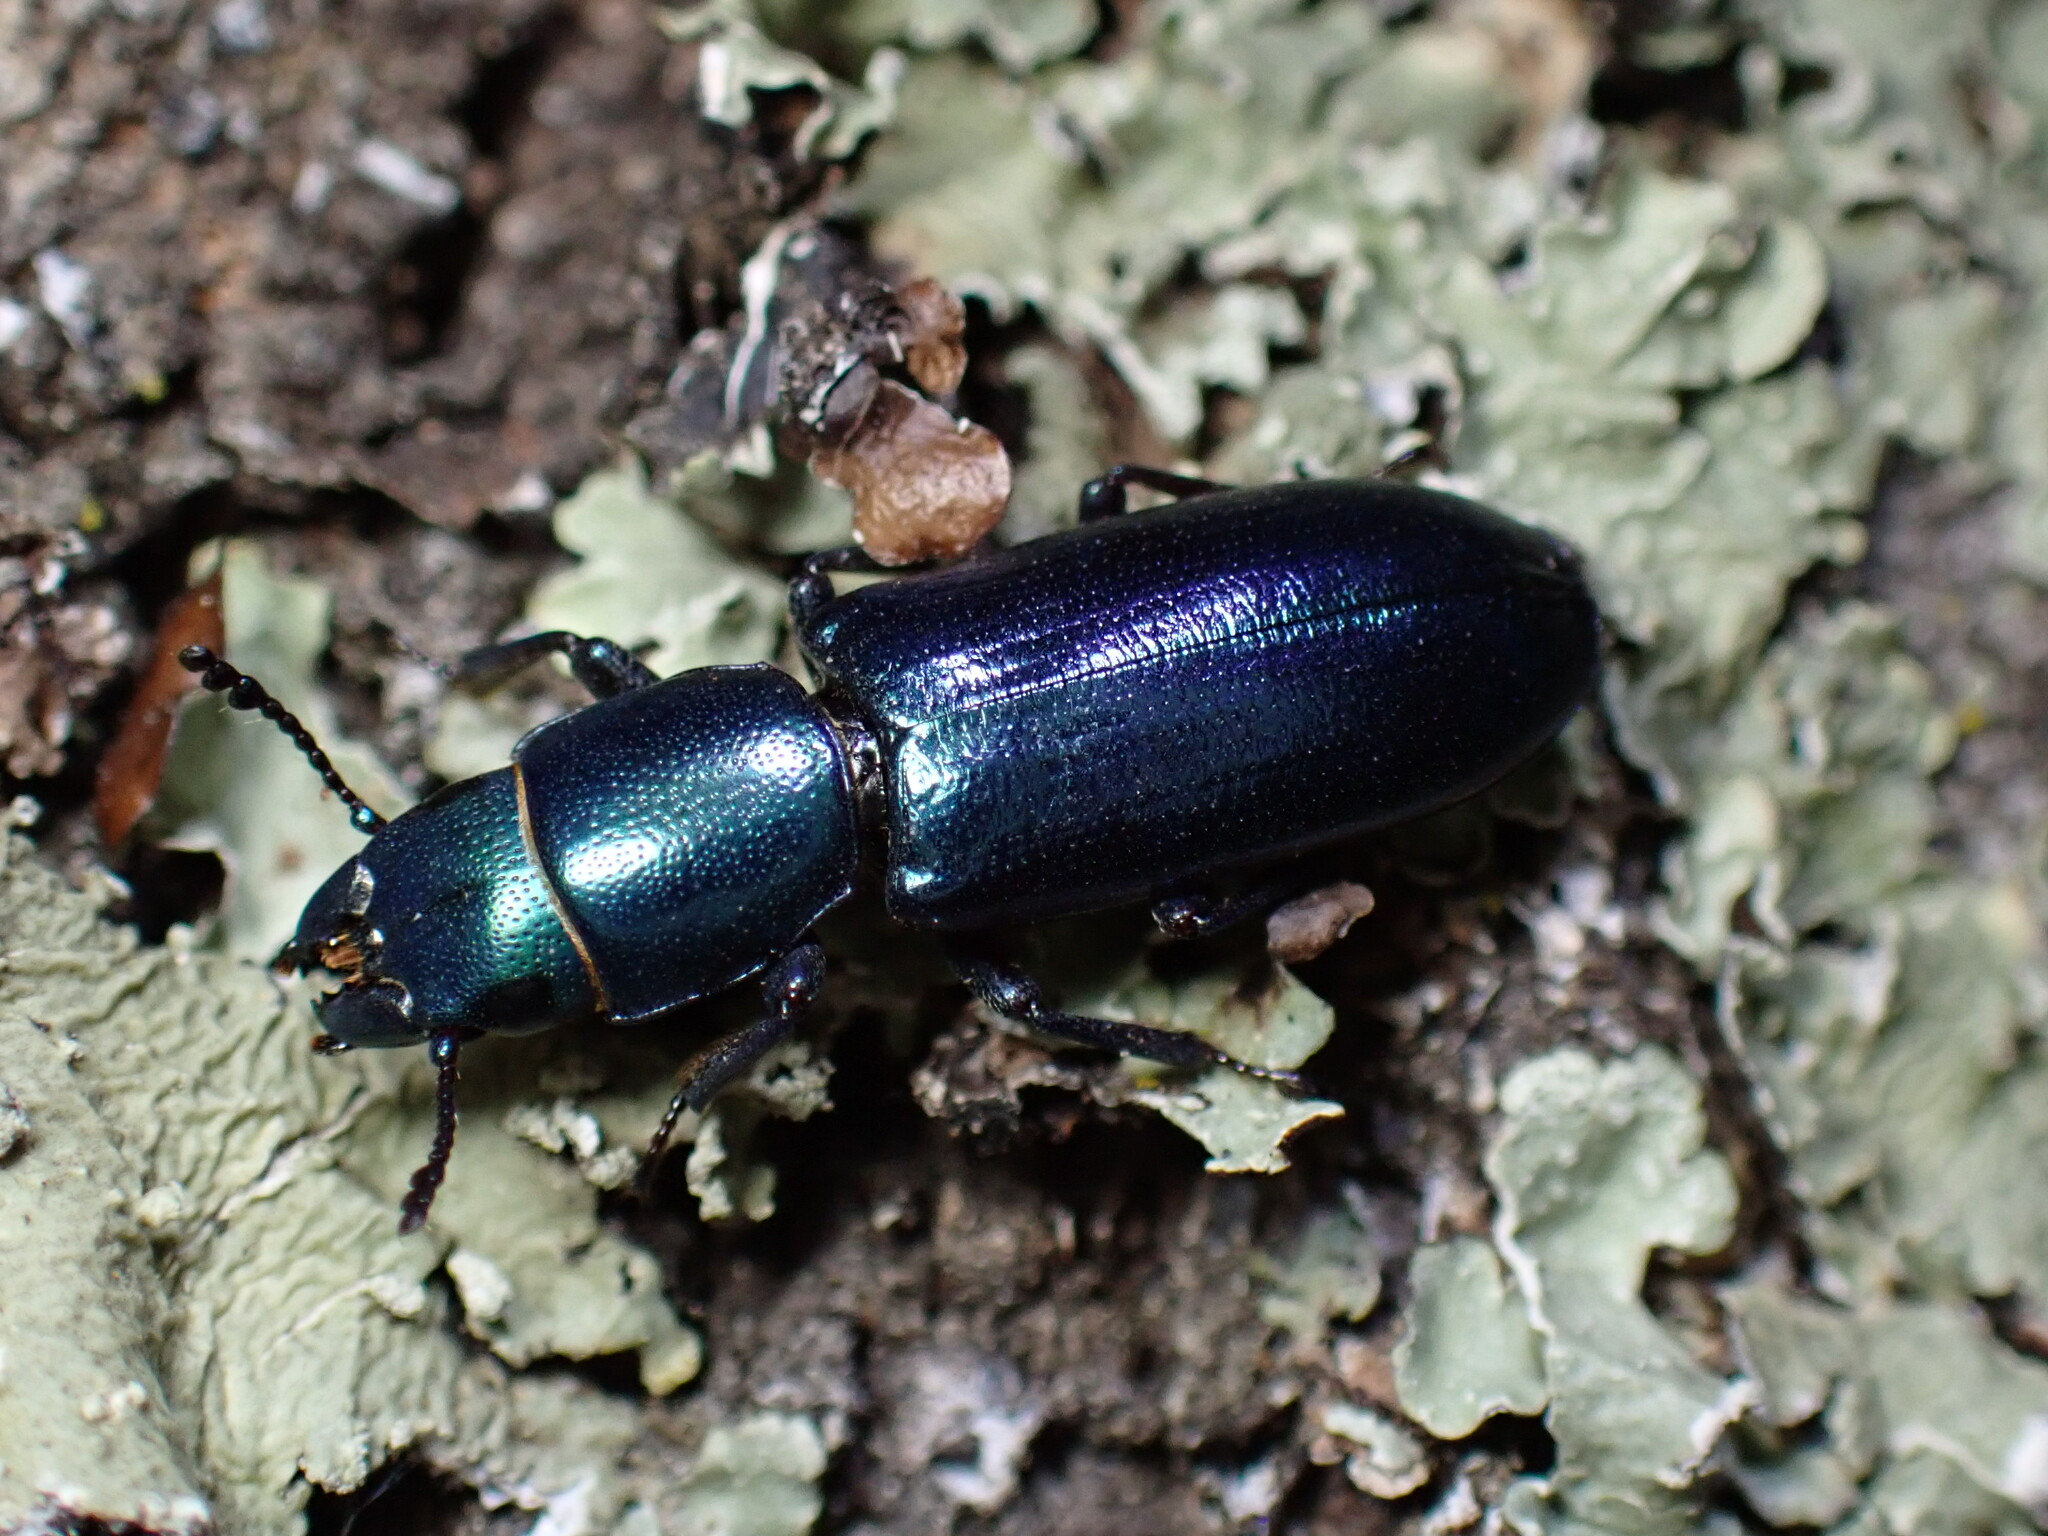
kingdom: Animalia
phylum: Arthropoda
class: Insecta
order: Coleoptera
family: Trogossitidae
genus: Temnoscheila
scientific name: Temnoscheila chlorodia
